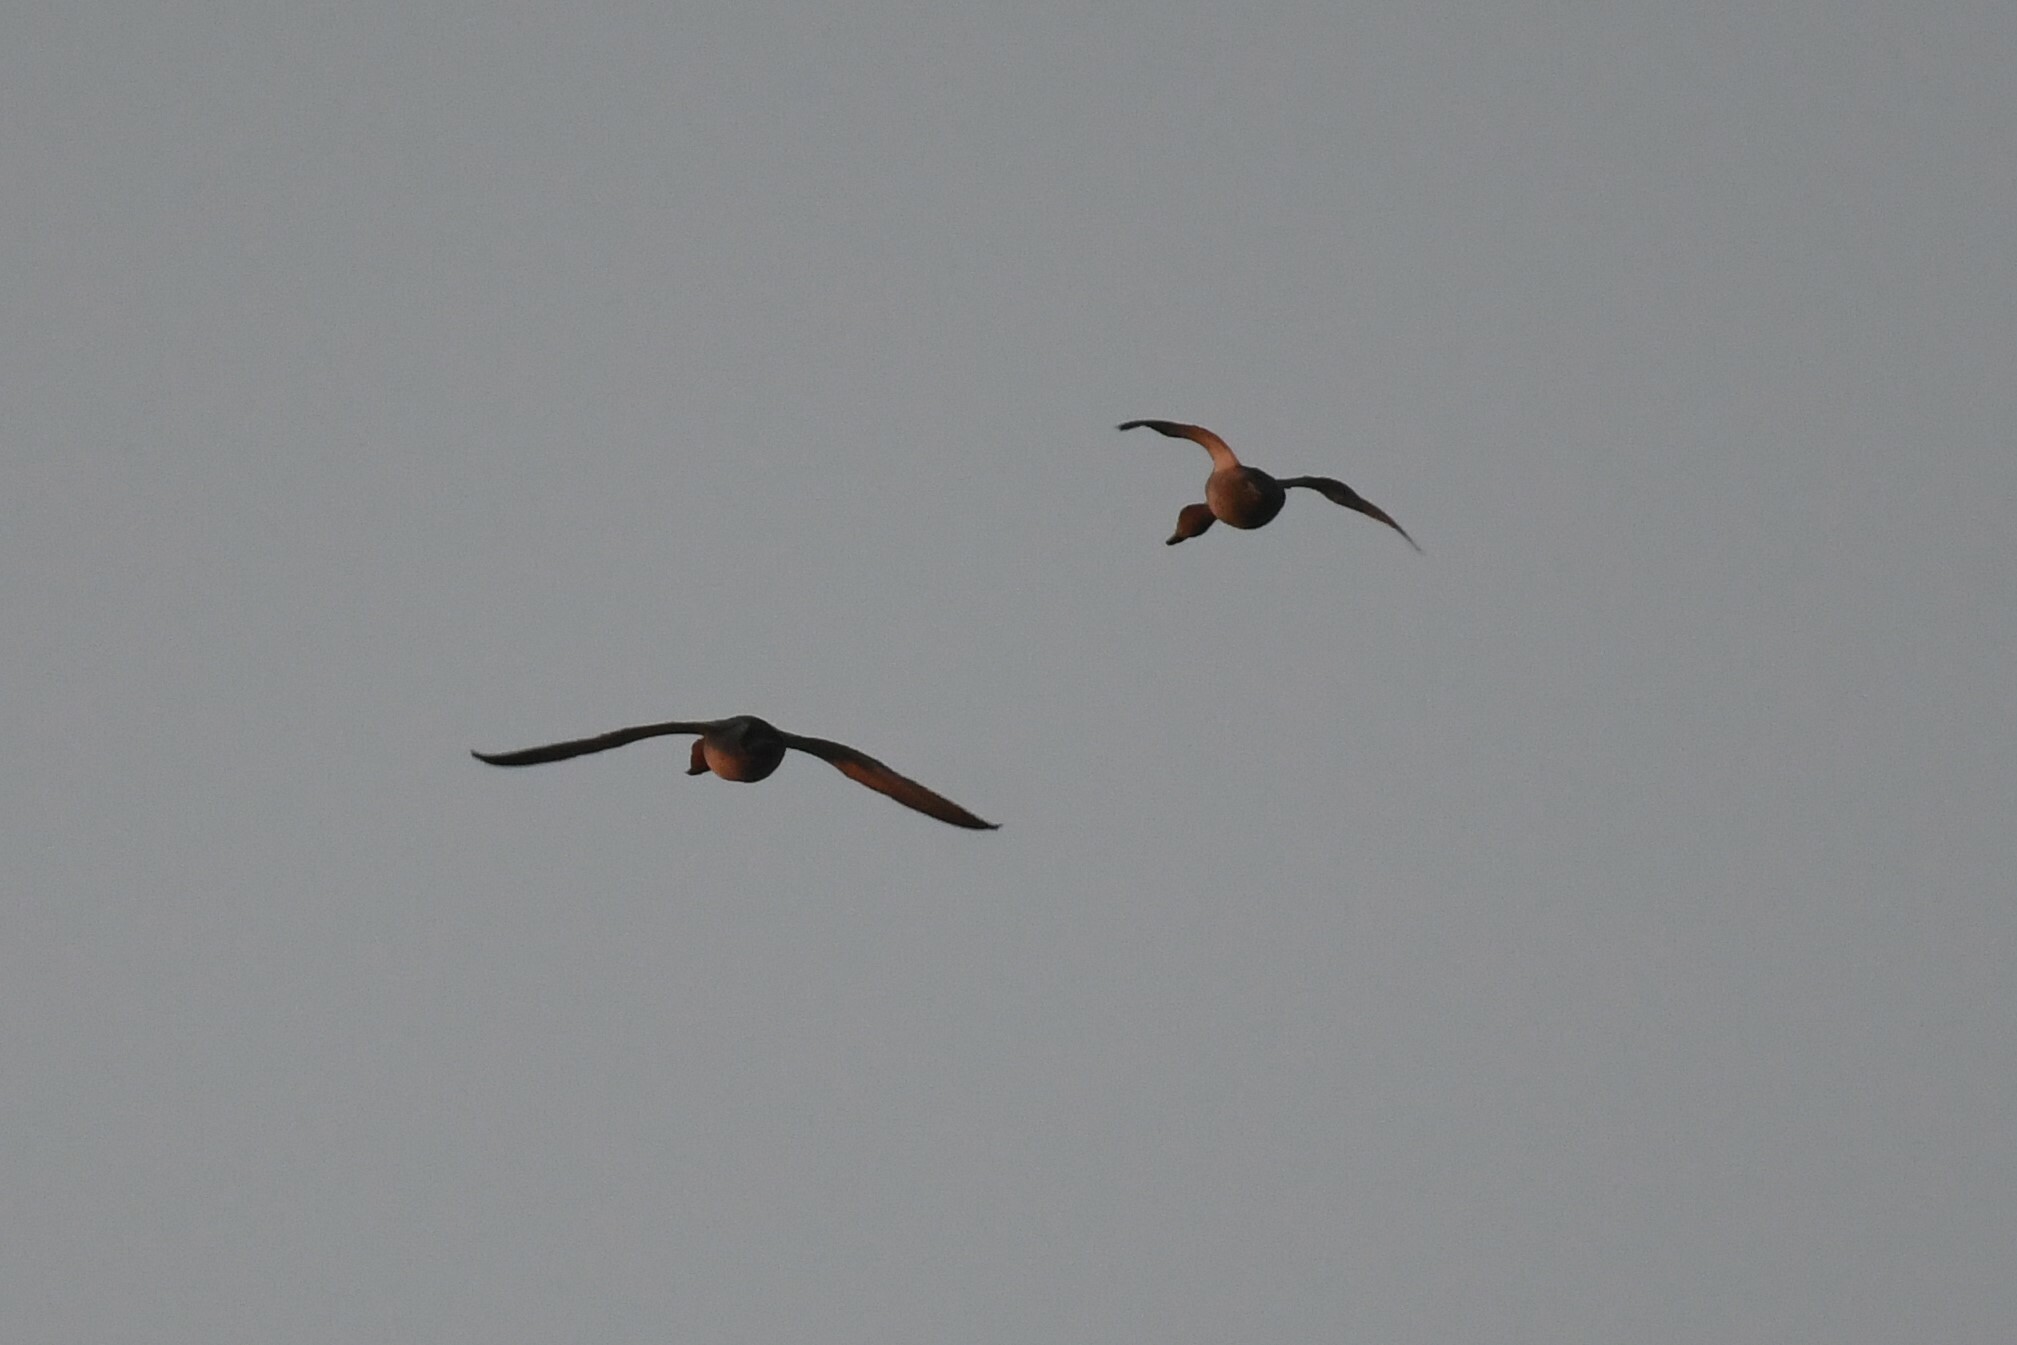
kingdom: Animalia
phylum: Chordata
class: Aves
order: Anseriformes
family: Anatidae
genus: Aythya
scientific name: Aythya americana
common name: Redhead
